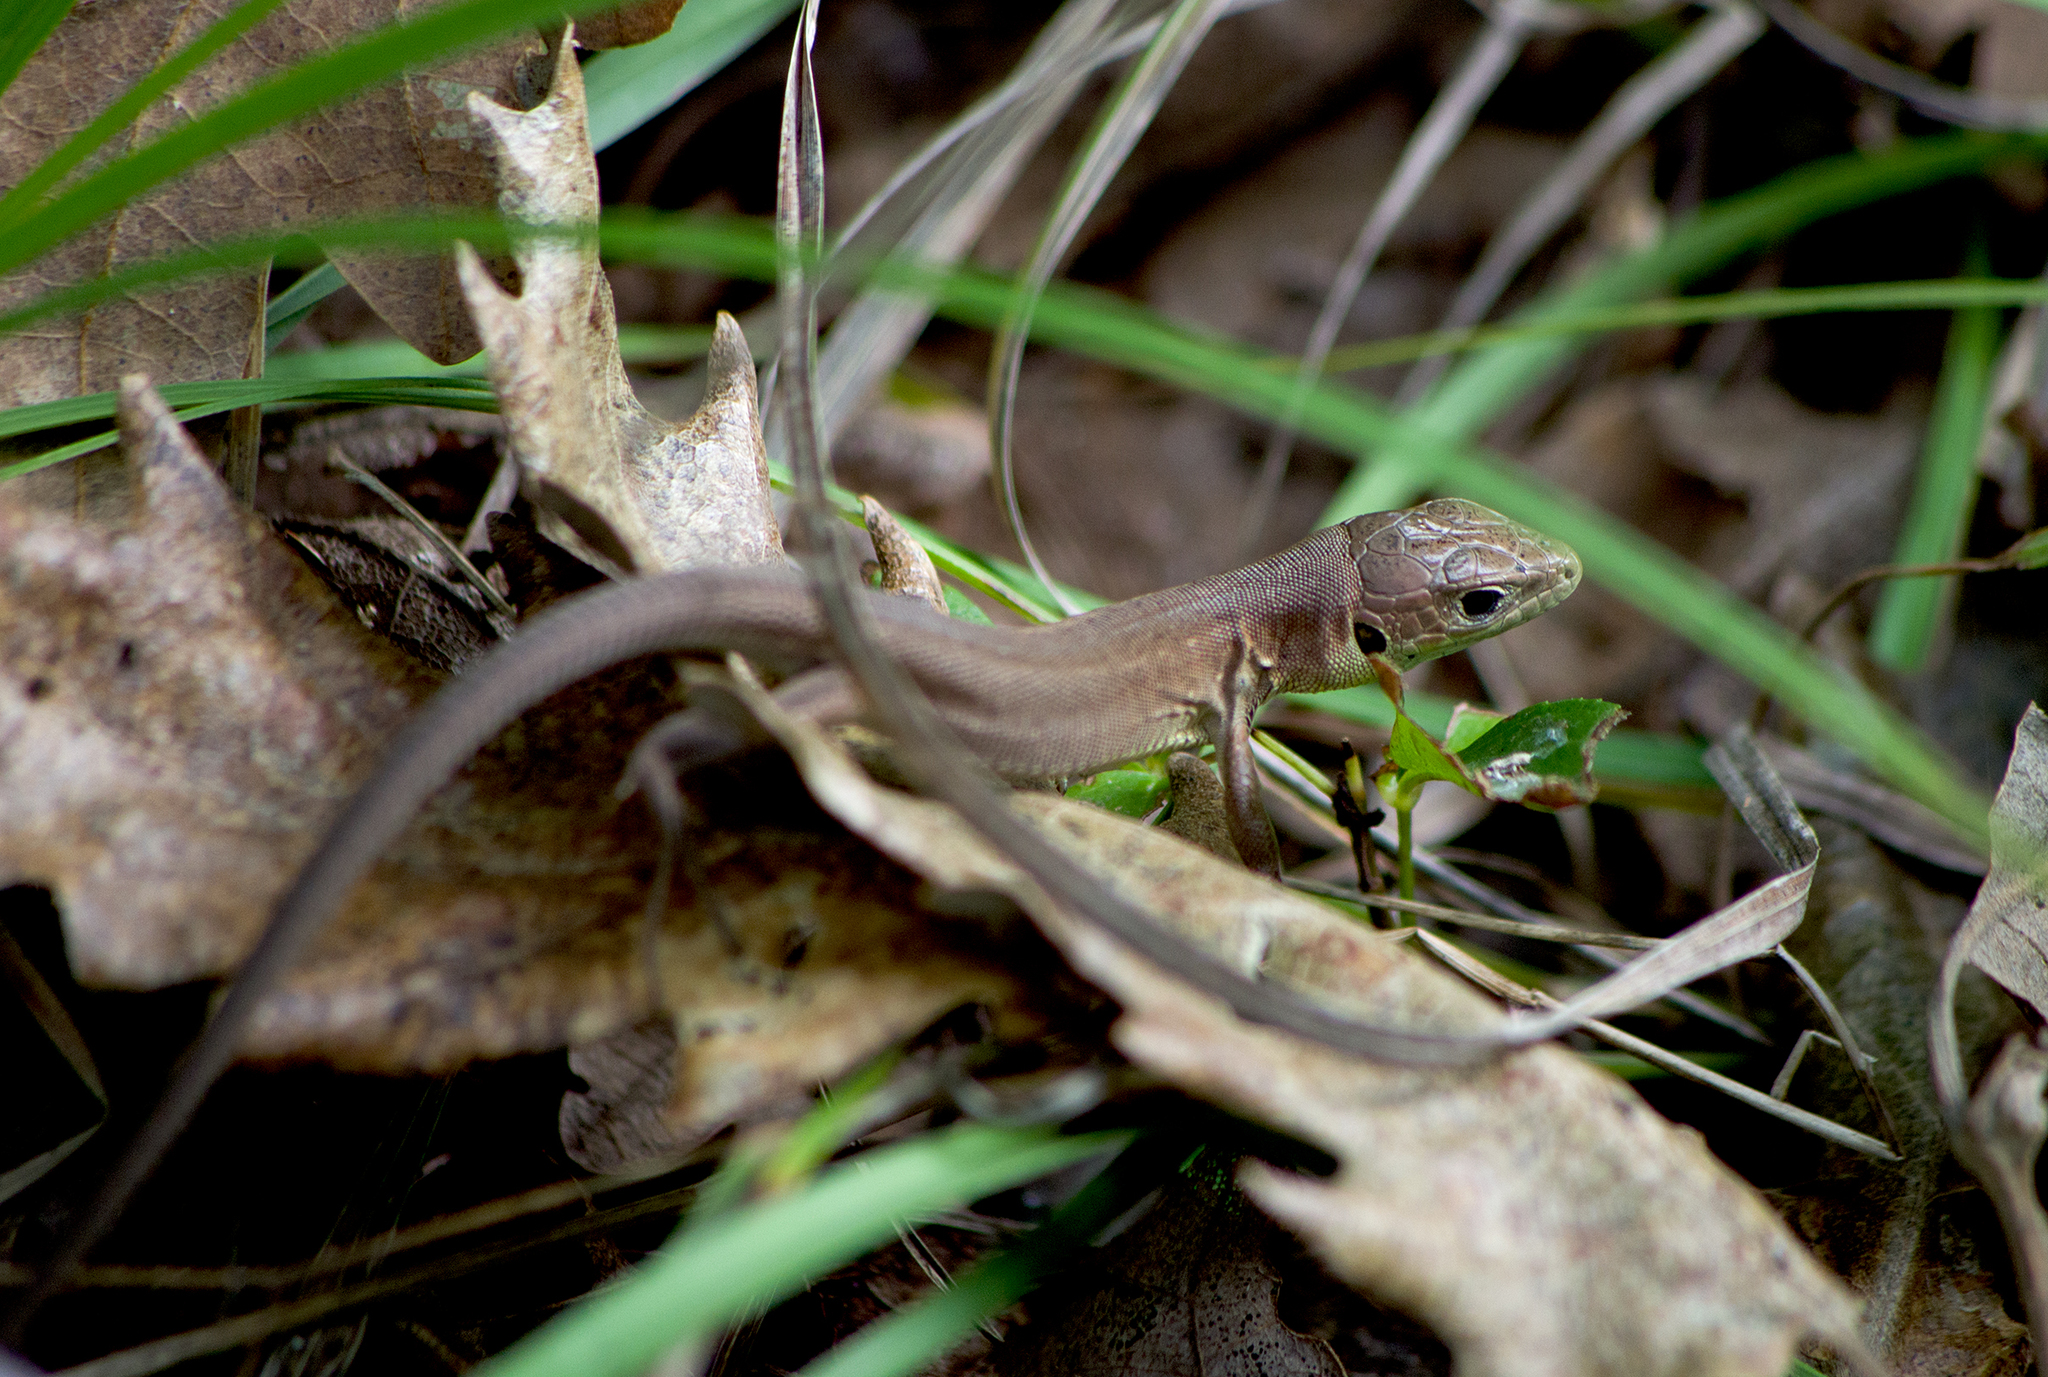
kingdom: Animalia
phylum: Chordata
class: Squamata
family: Lacertidae
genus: Lacerta
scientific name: Lacerta viridis
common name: European green lizard
